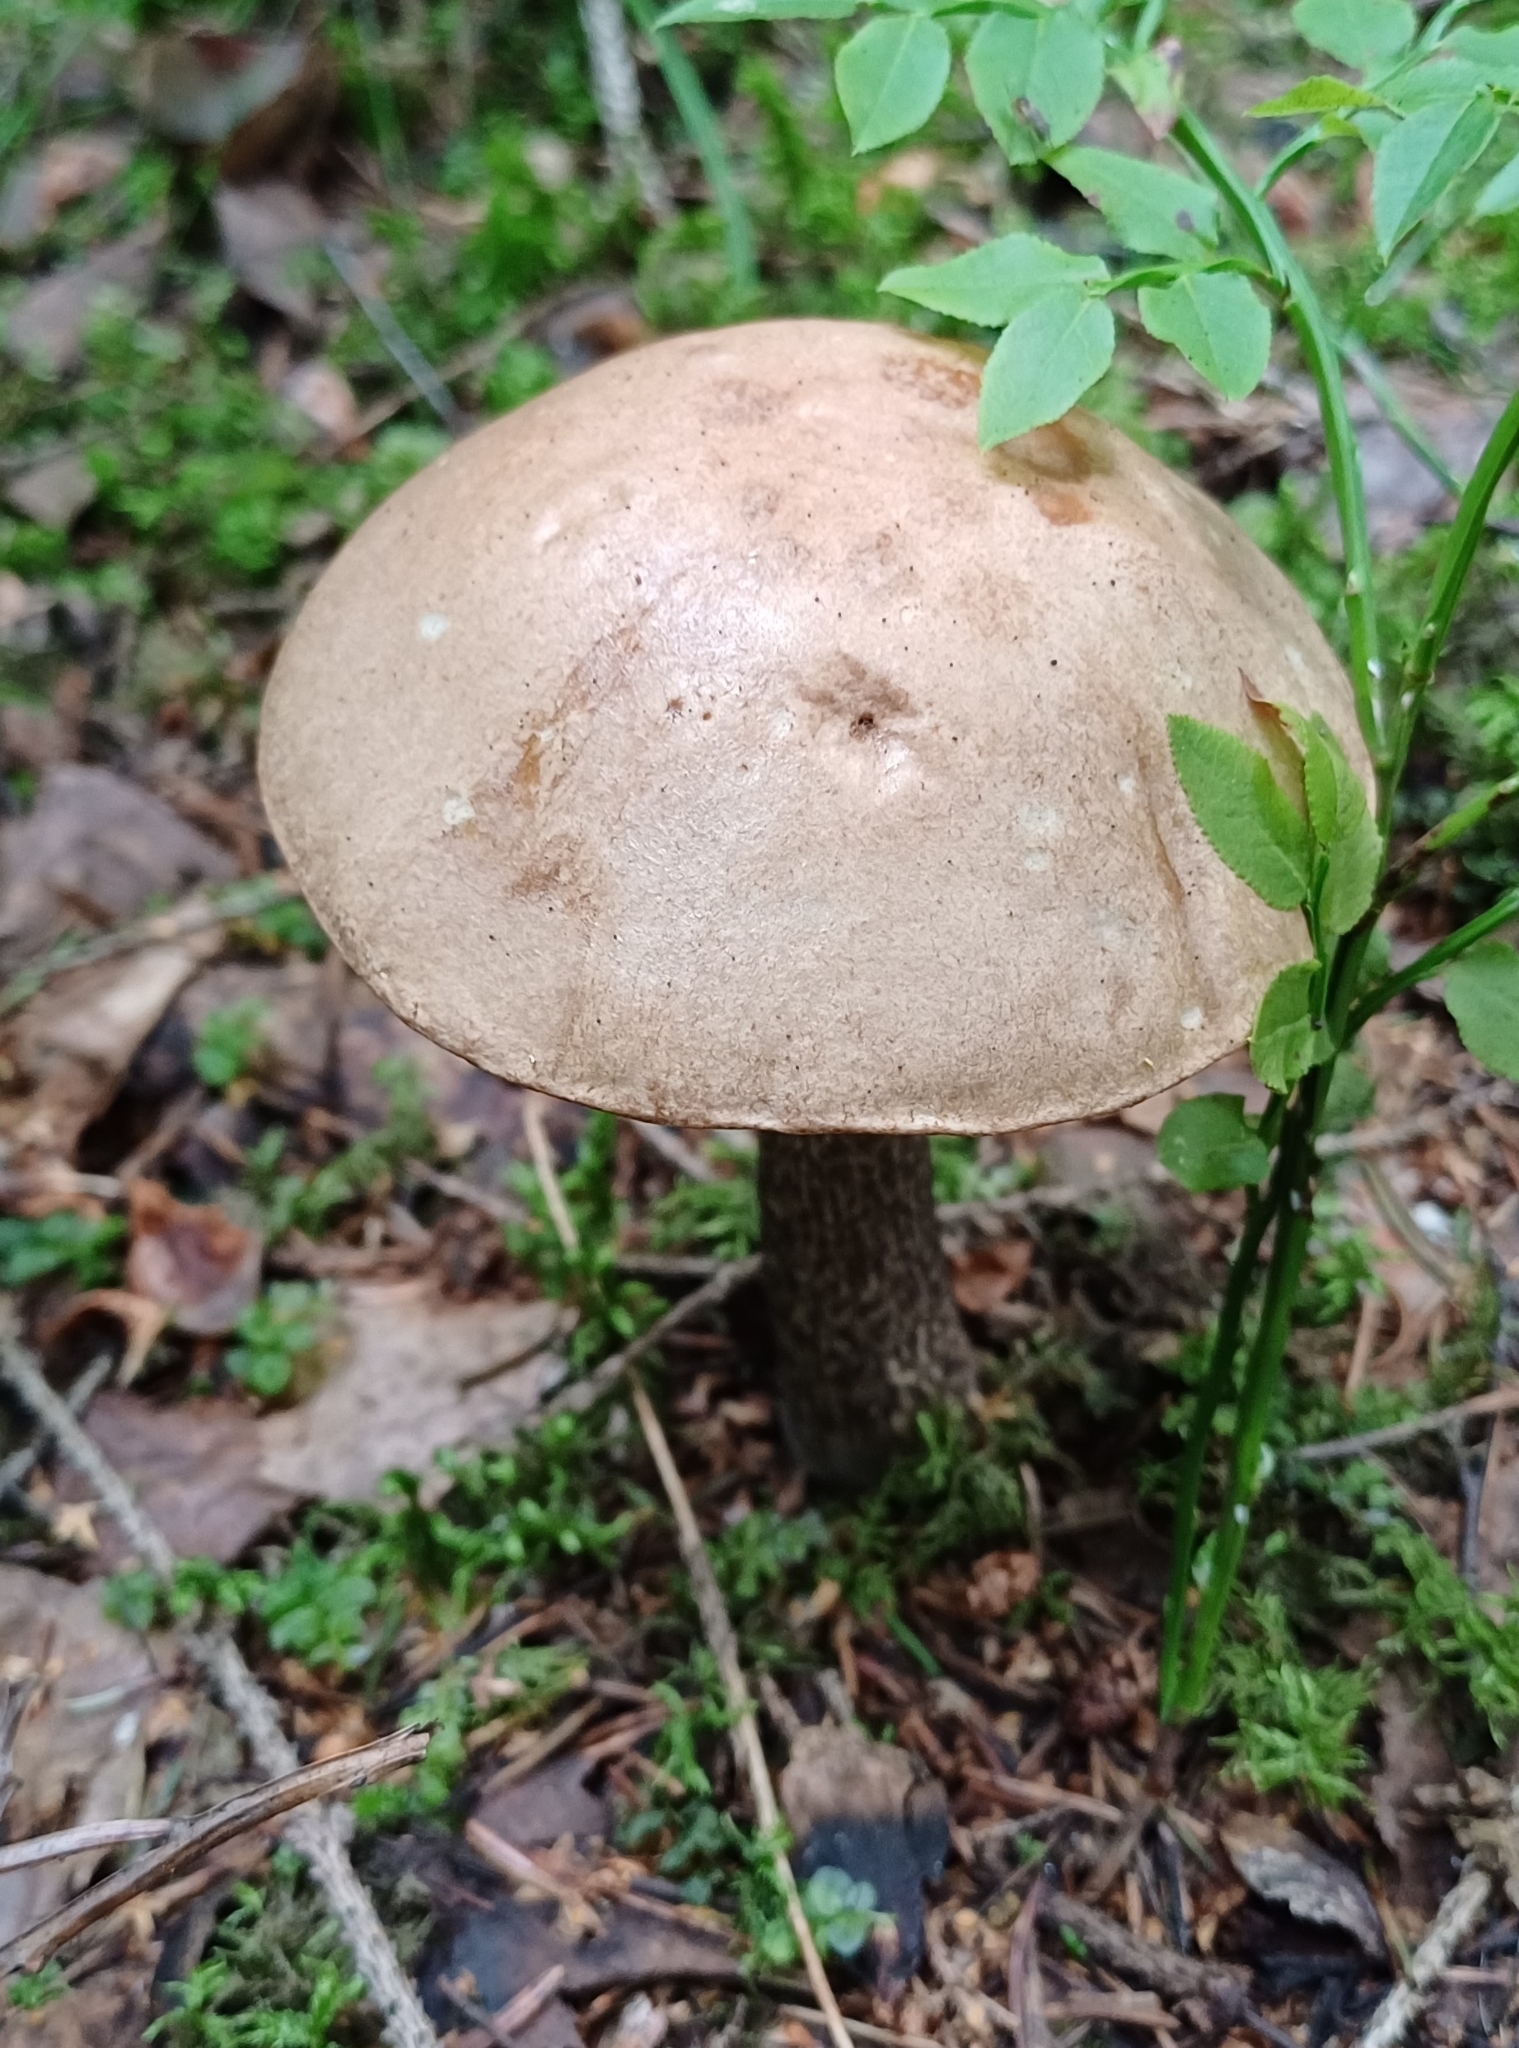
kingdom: Fungi
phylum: Basidiomycota
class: Agaricomycetes
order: Boletales
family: Boletaceae
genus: Leccinum
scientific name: Leccinum scabrum
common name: Blushing bolete
